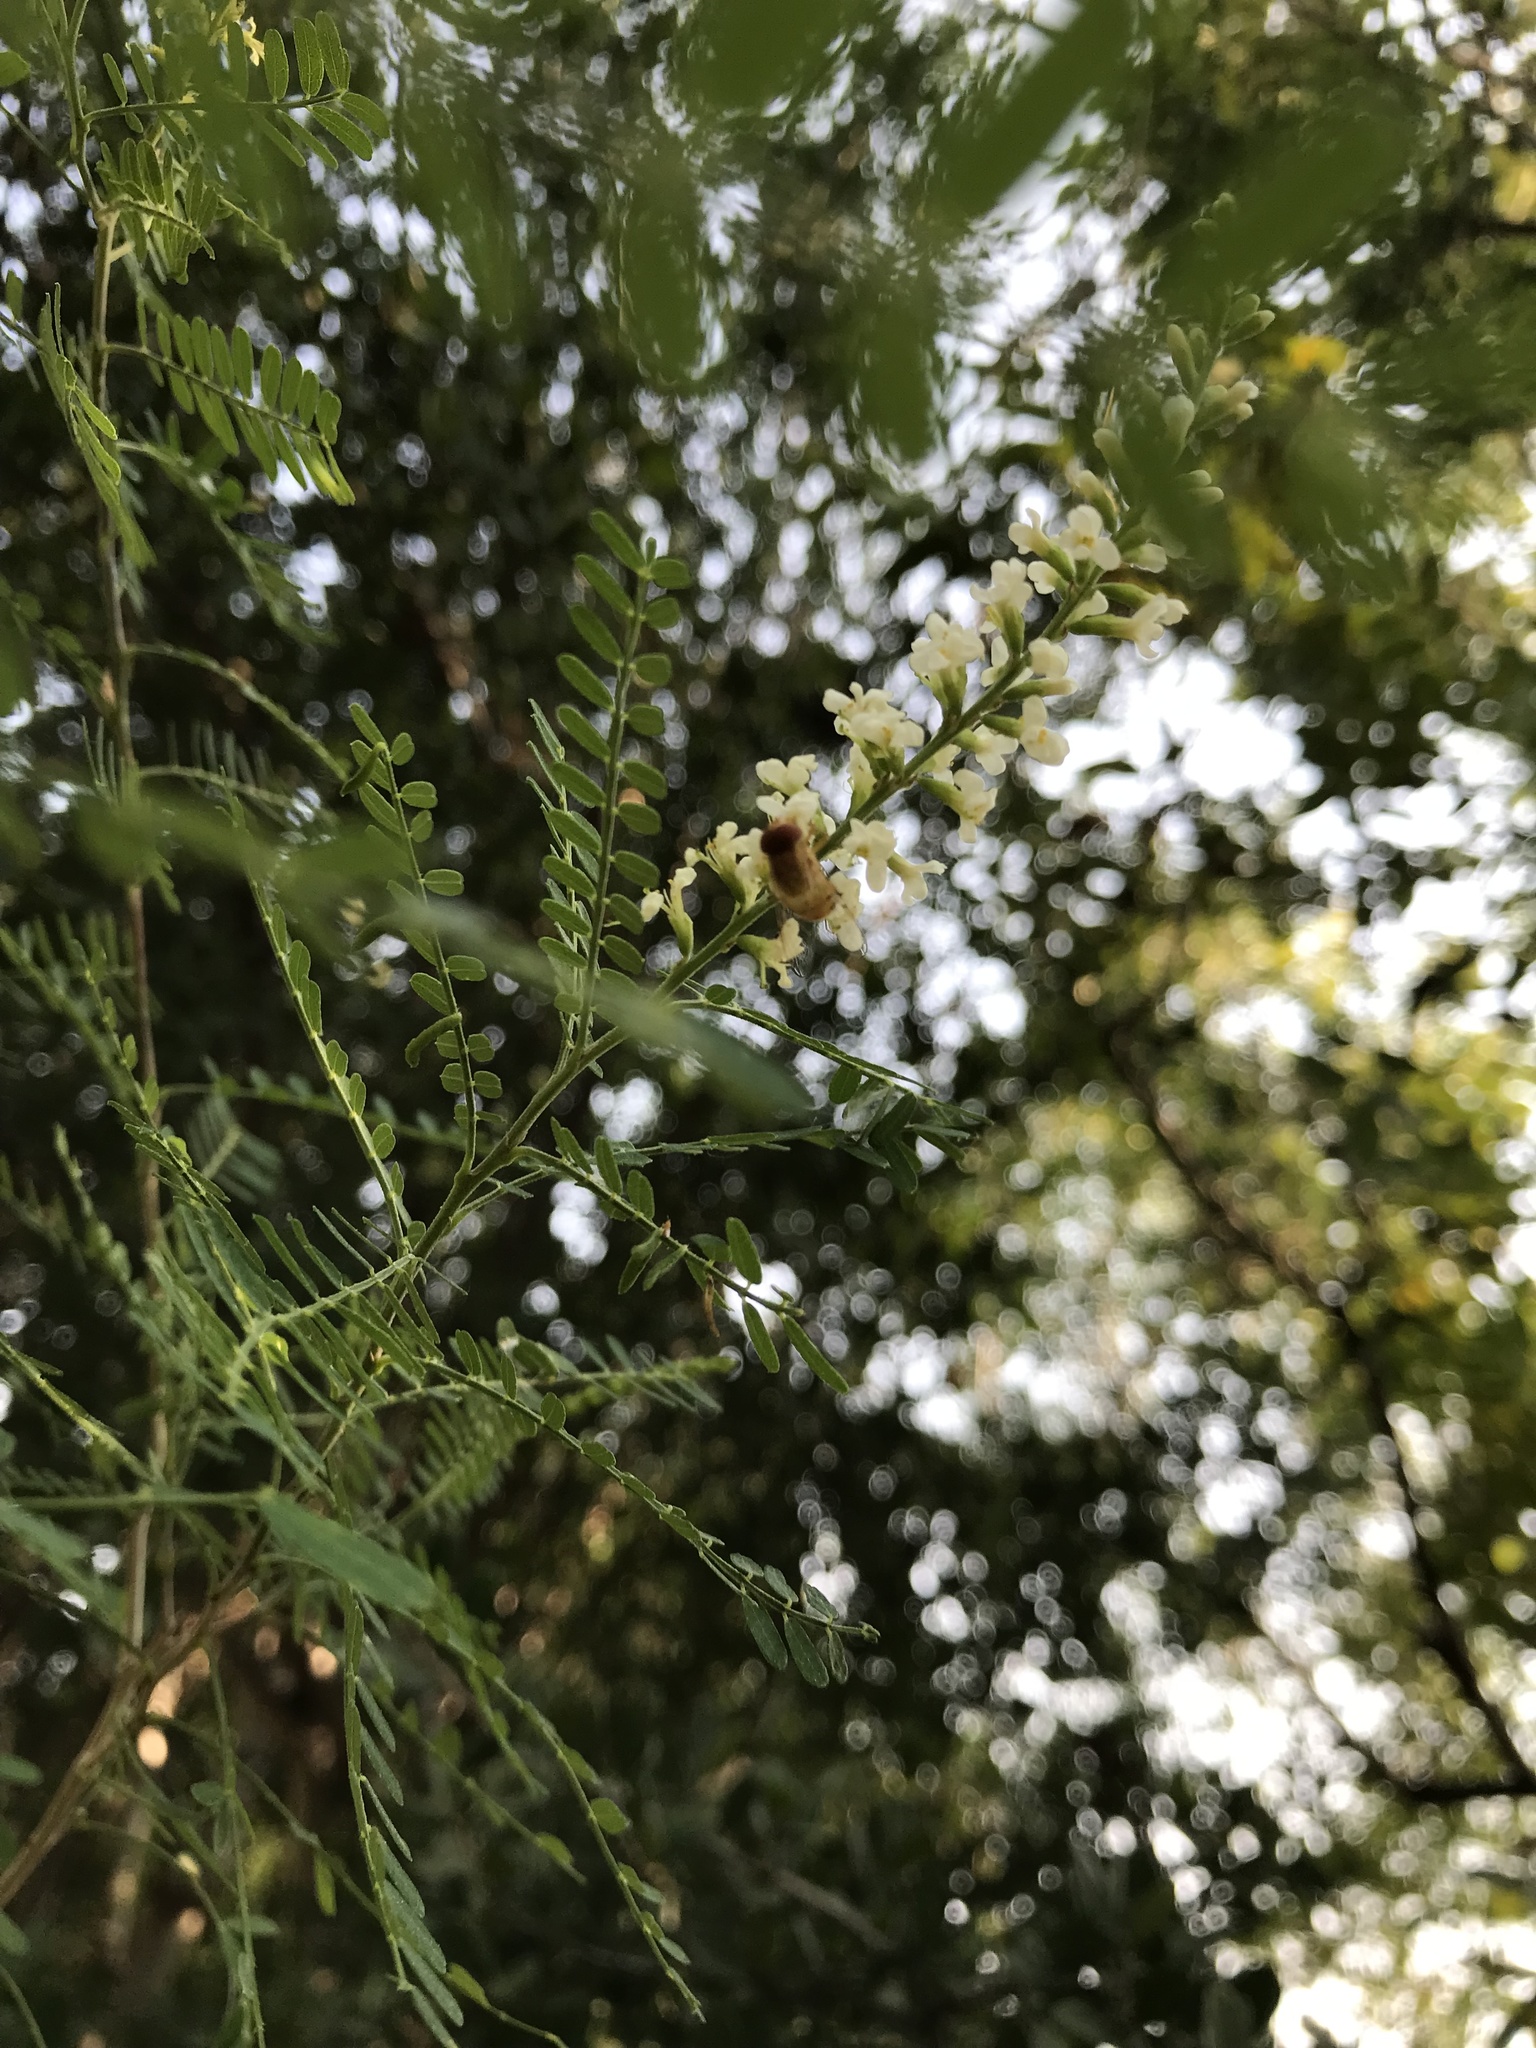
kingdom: Animalia
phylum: Arthropoda
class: Insecta
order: Diptera
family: Syrphidae
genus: Copestylum
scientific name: Copestylum sexmaculatum
